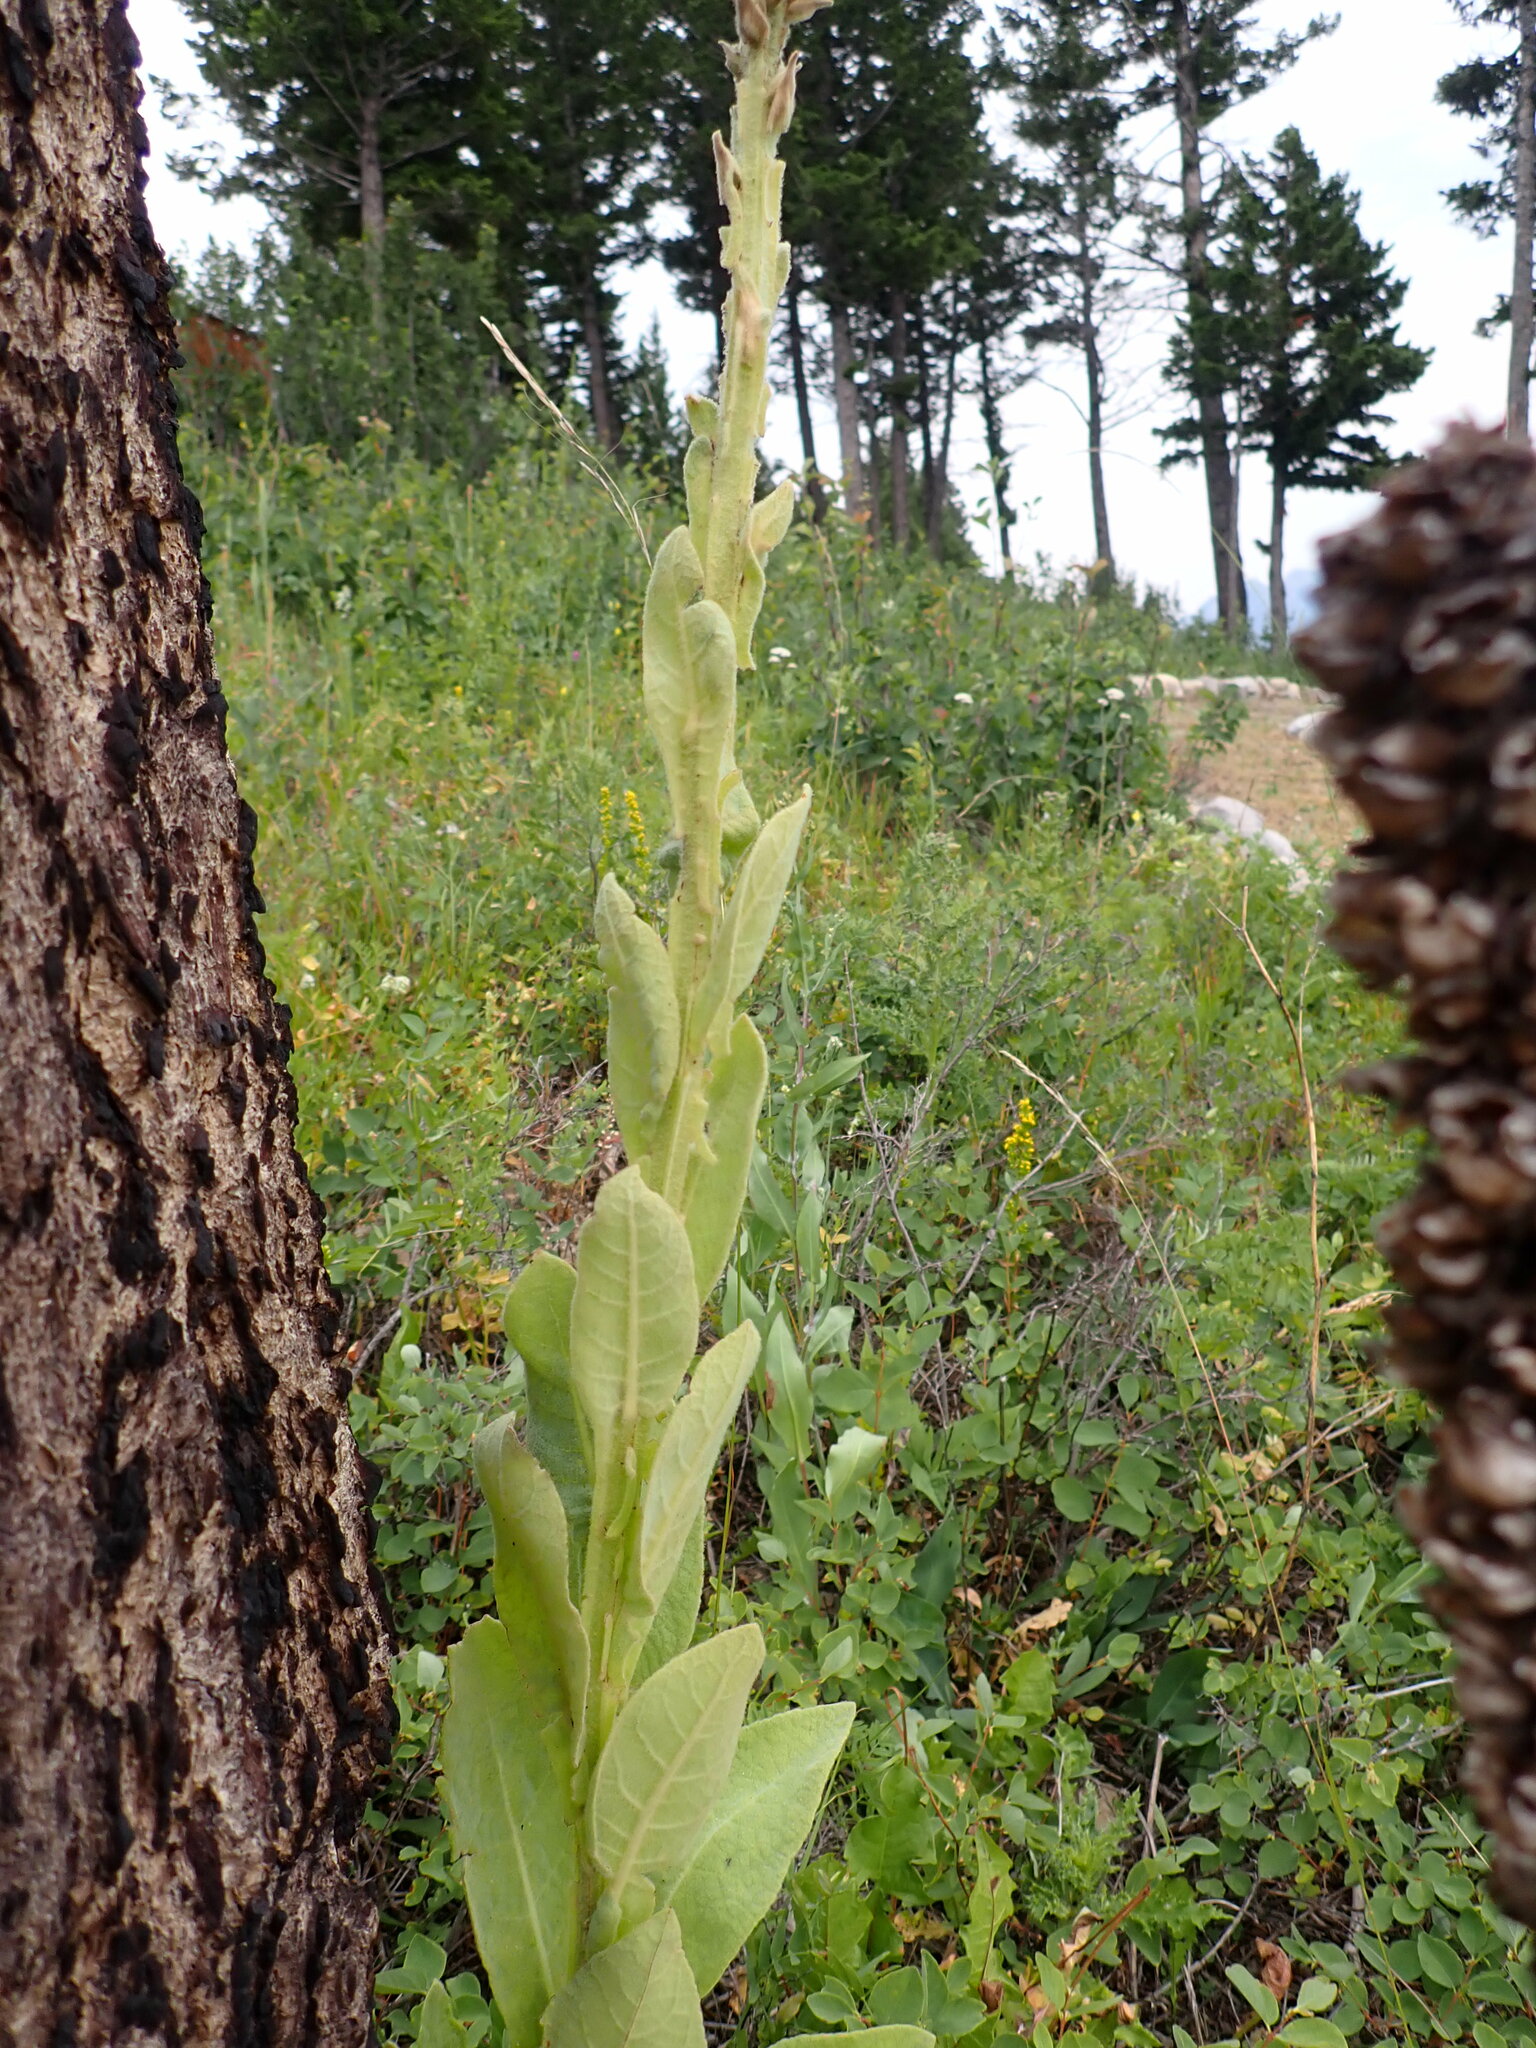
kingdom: Plantae
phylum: Tracheophyta
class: Magnoliopsida
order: Lamiales
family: Scrophulariaceae
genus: Verbascum
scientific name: Verbascum thapsus
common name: Common mullein
